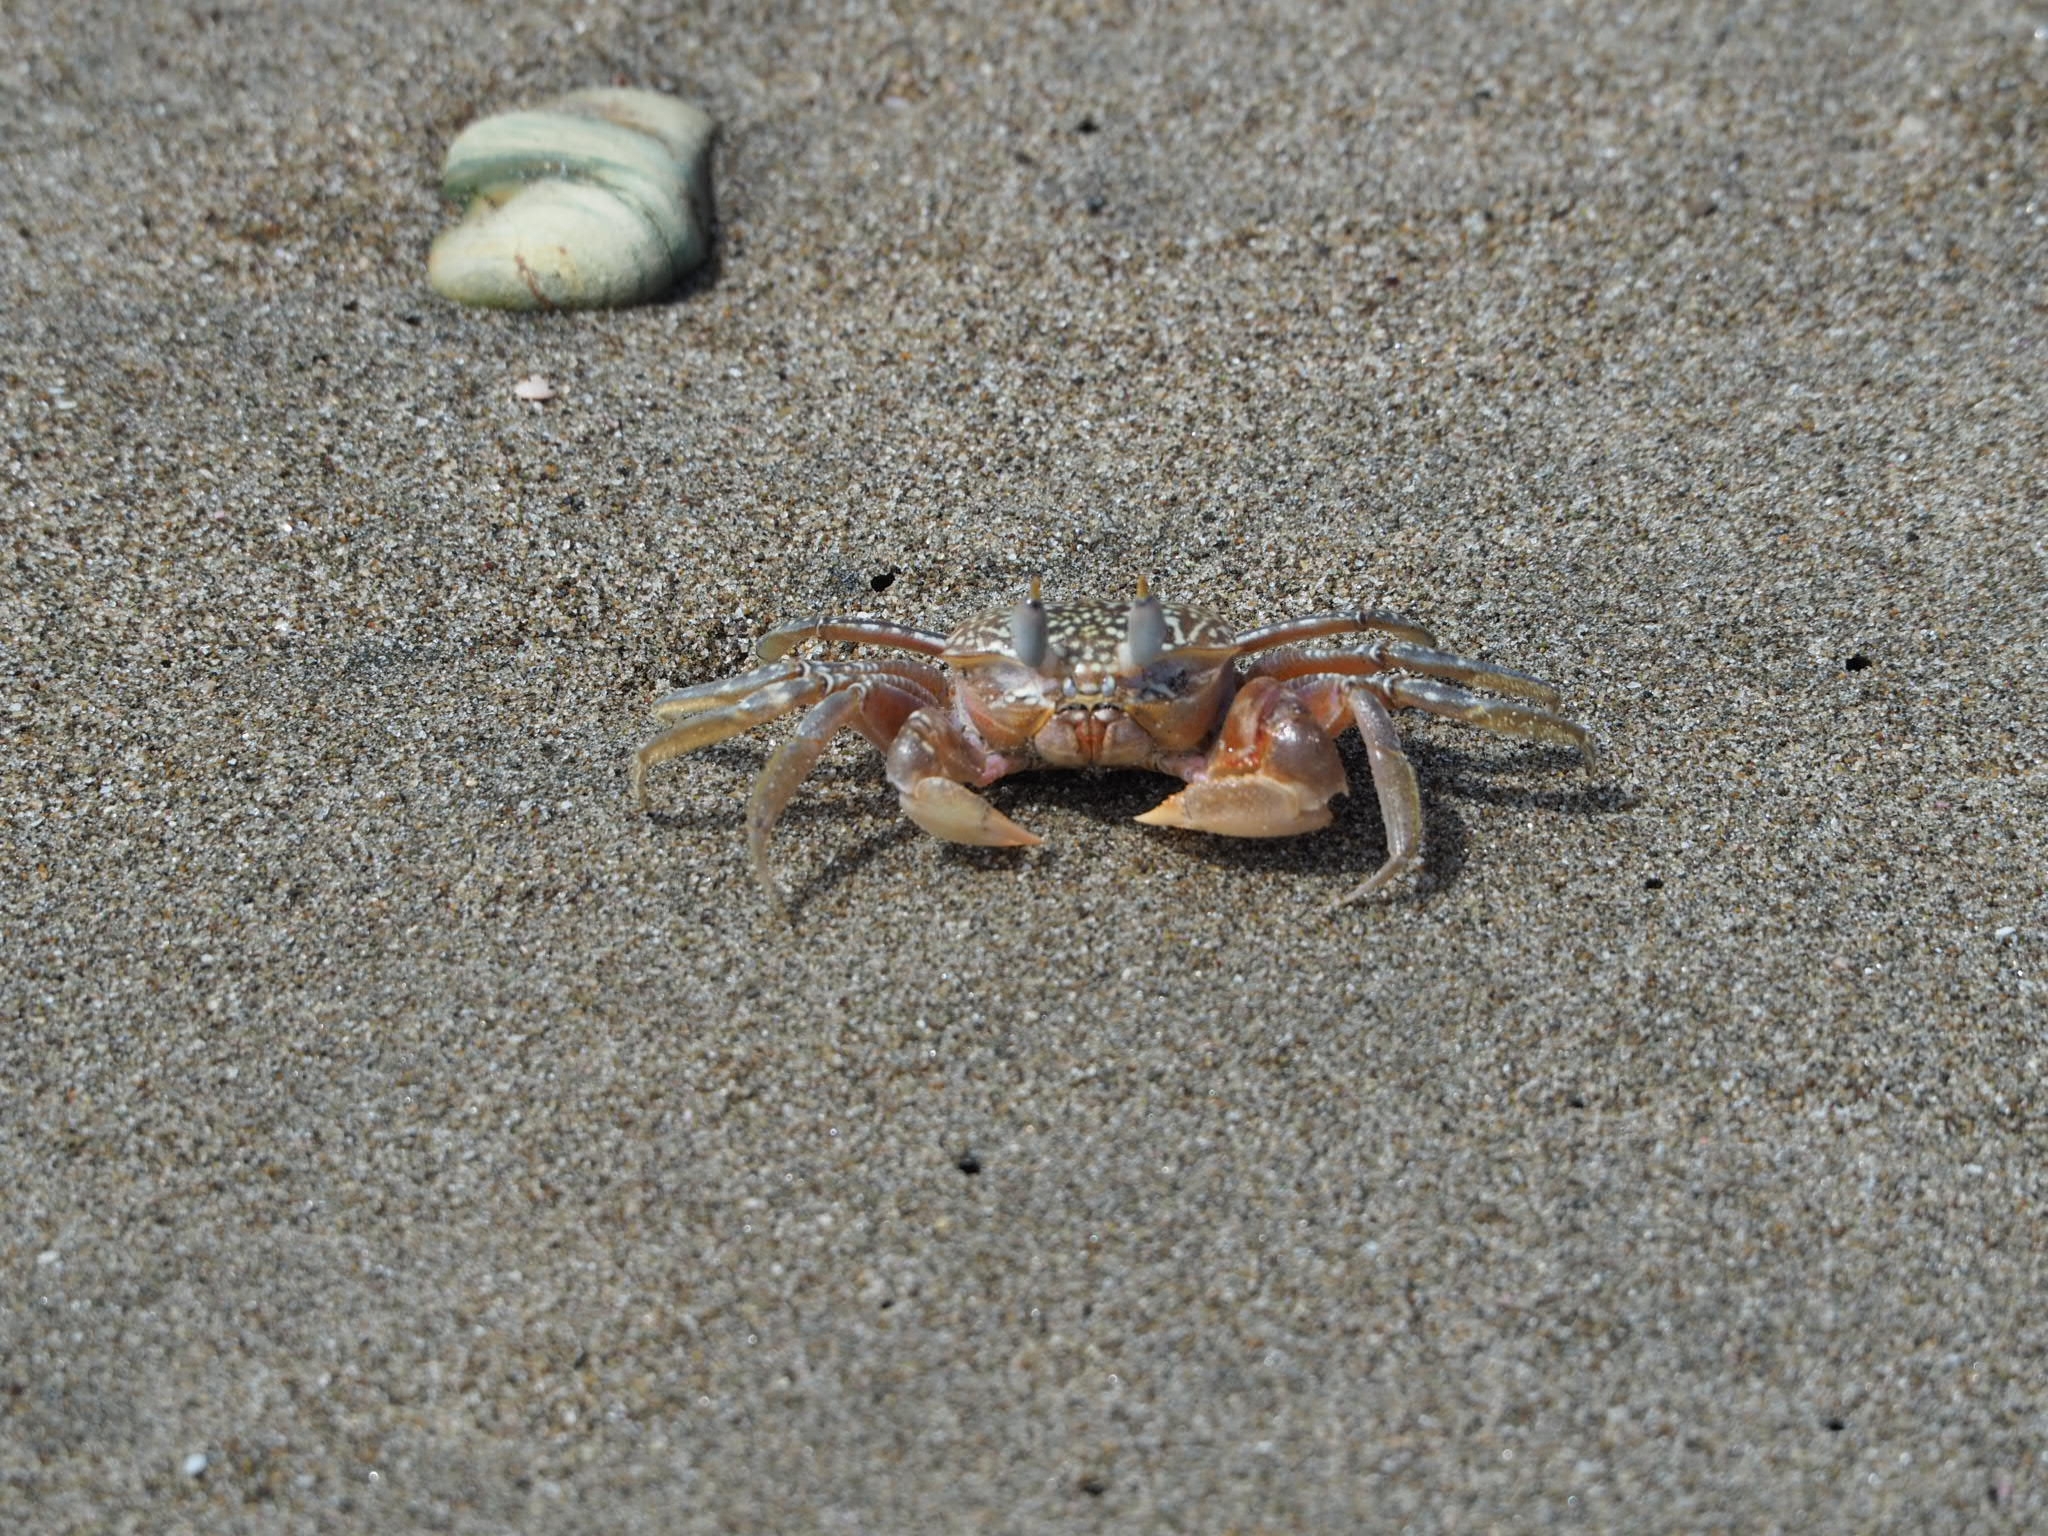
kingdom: Animalia
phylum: Arthropoda
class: Malacostraca
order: Decapoda
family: Ocypodidae
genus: Ocypode
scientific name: Ocypode gaudichaudii
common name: Pacific ghost crab
